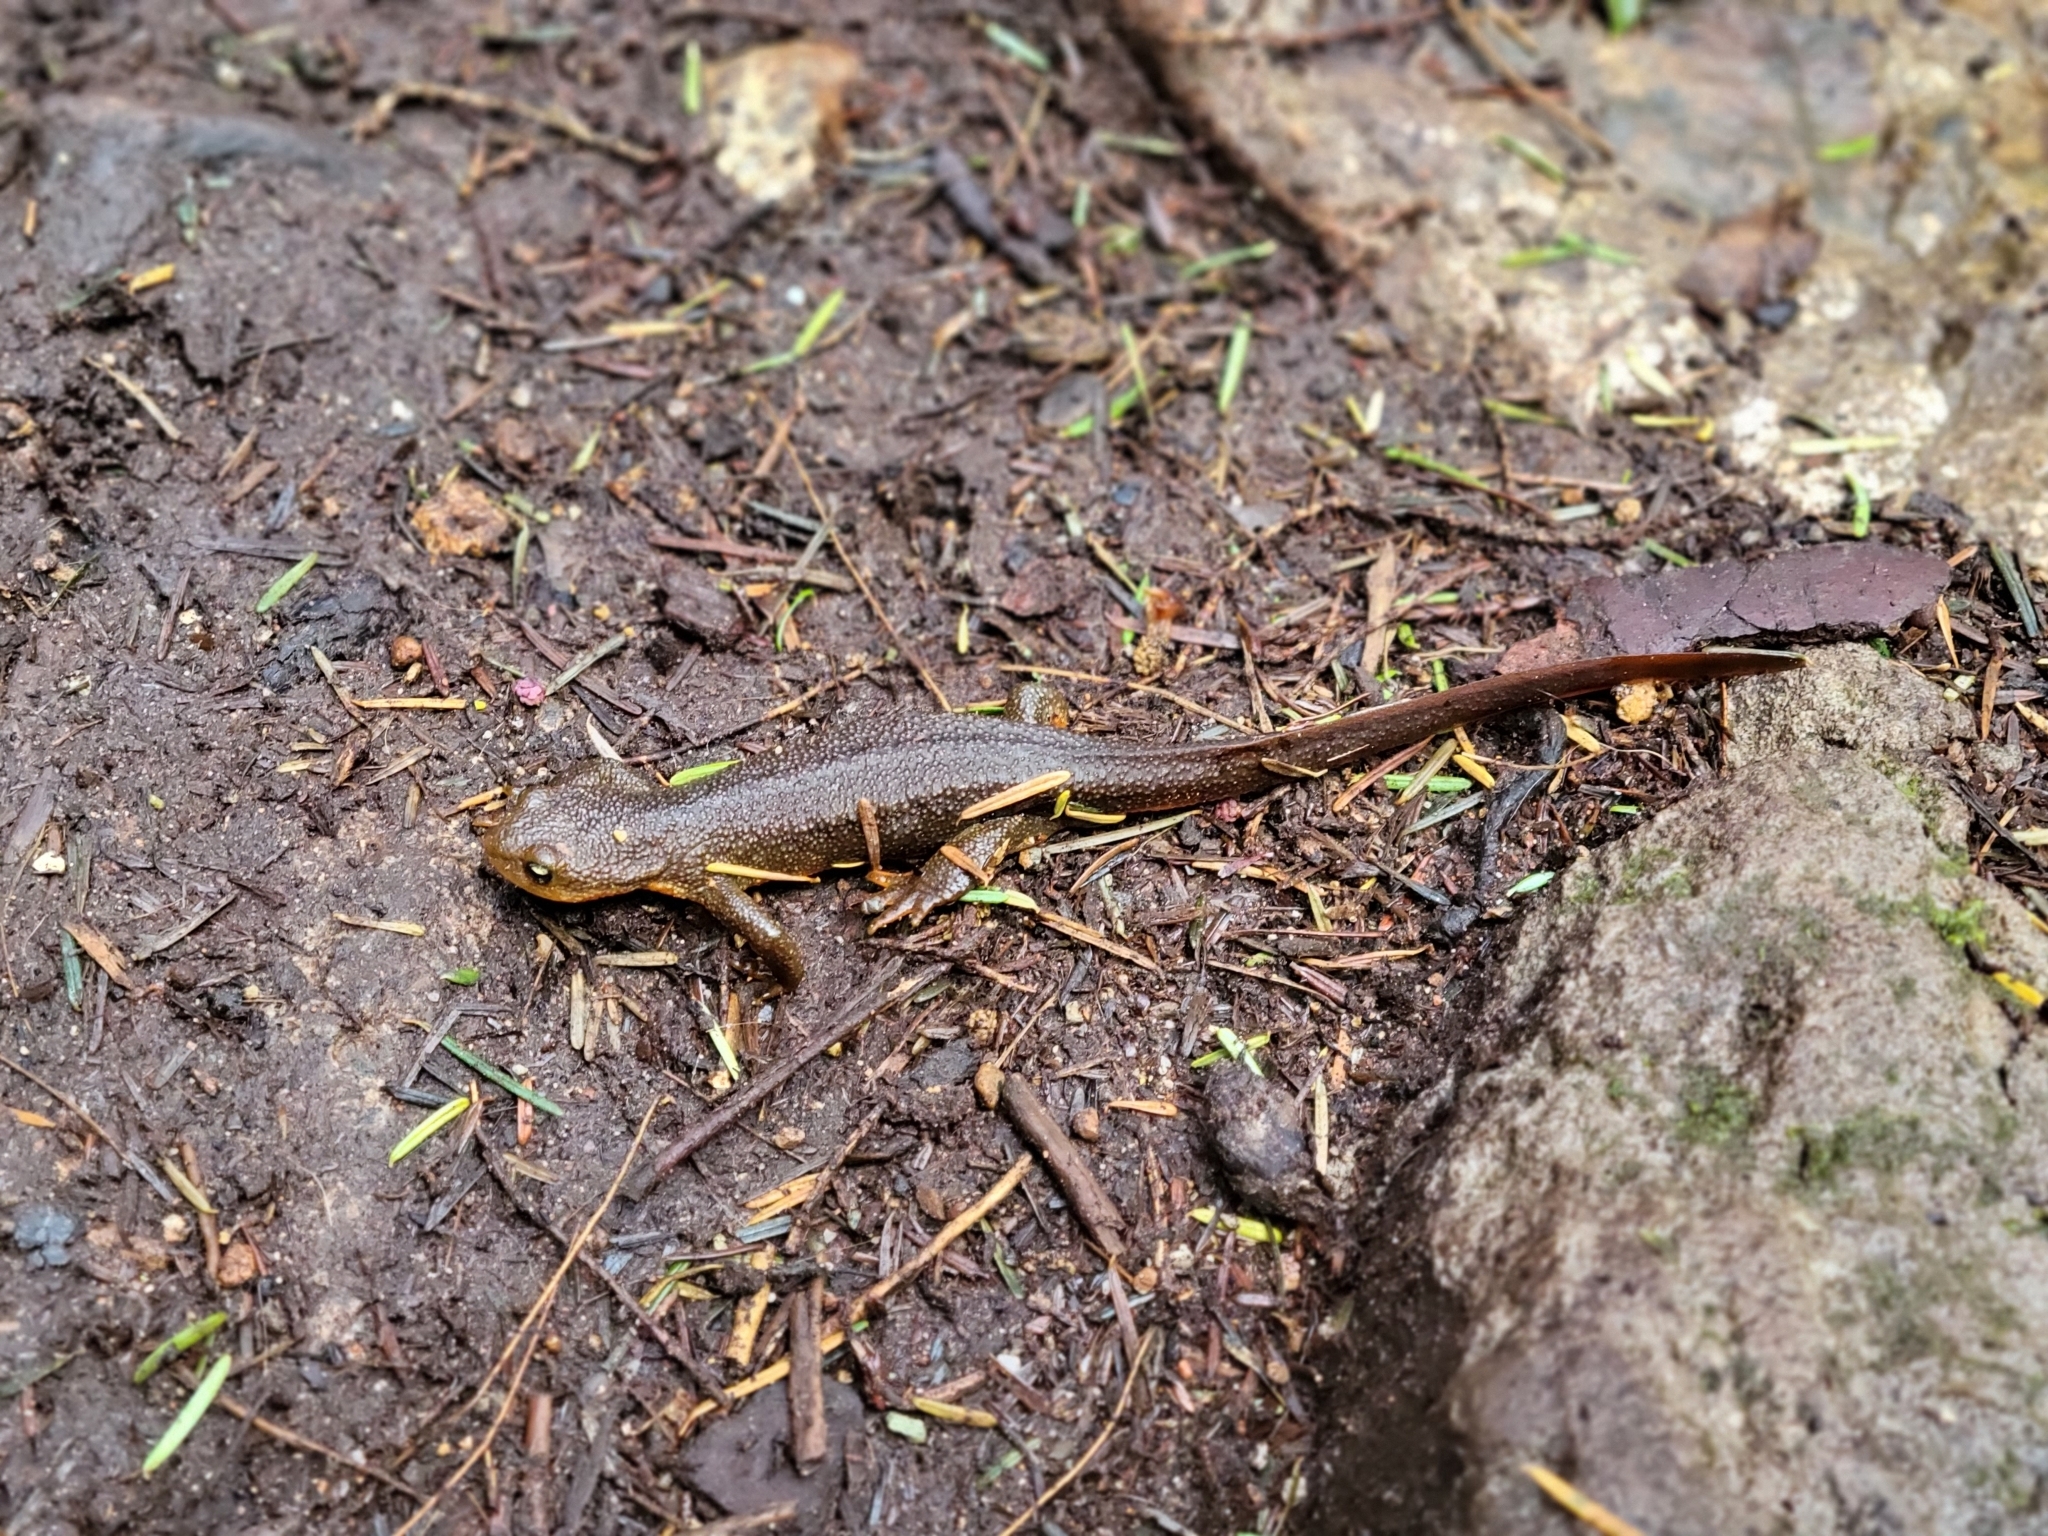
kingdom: Animalia
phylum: Chordata
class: Amphibia
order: Caudata
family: Salamandridae
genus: Taricha
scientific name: Taricha granulosa
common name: Roughskin newt
